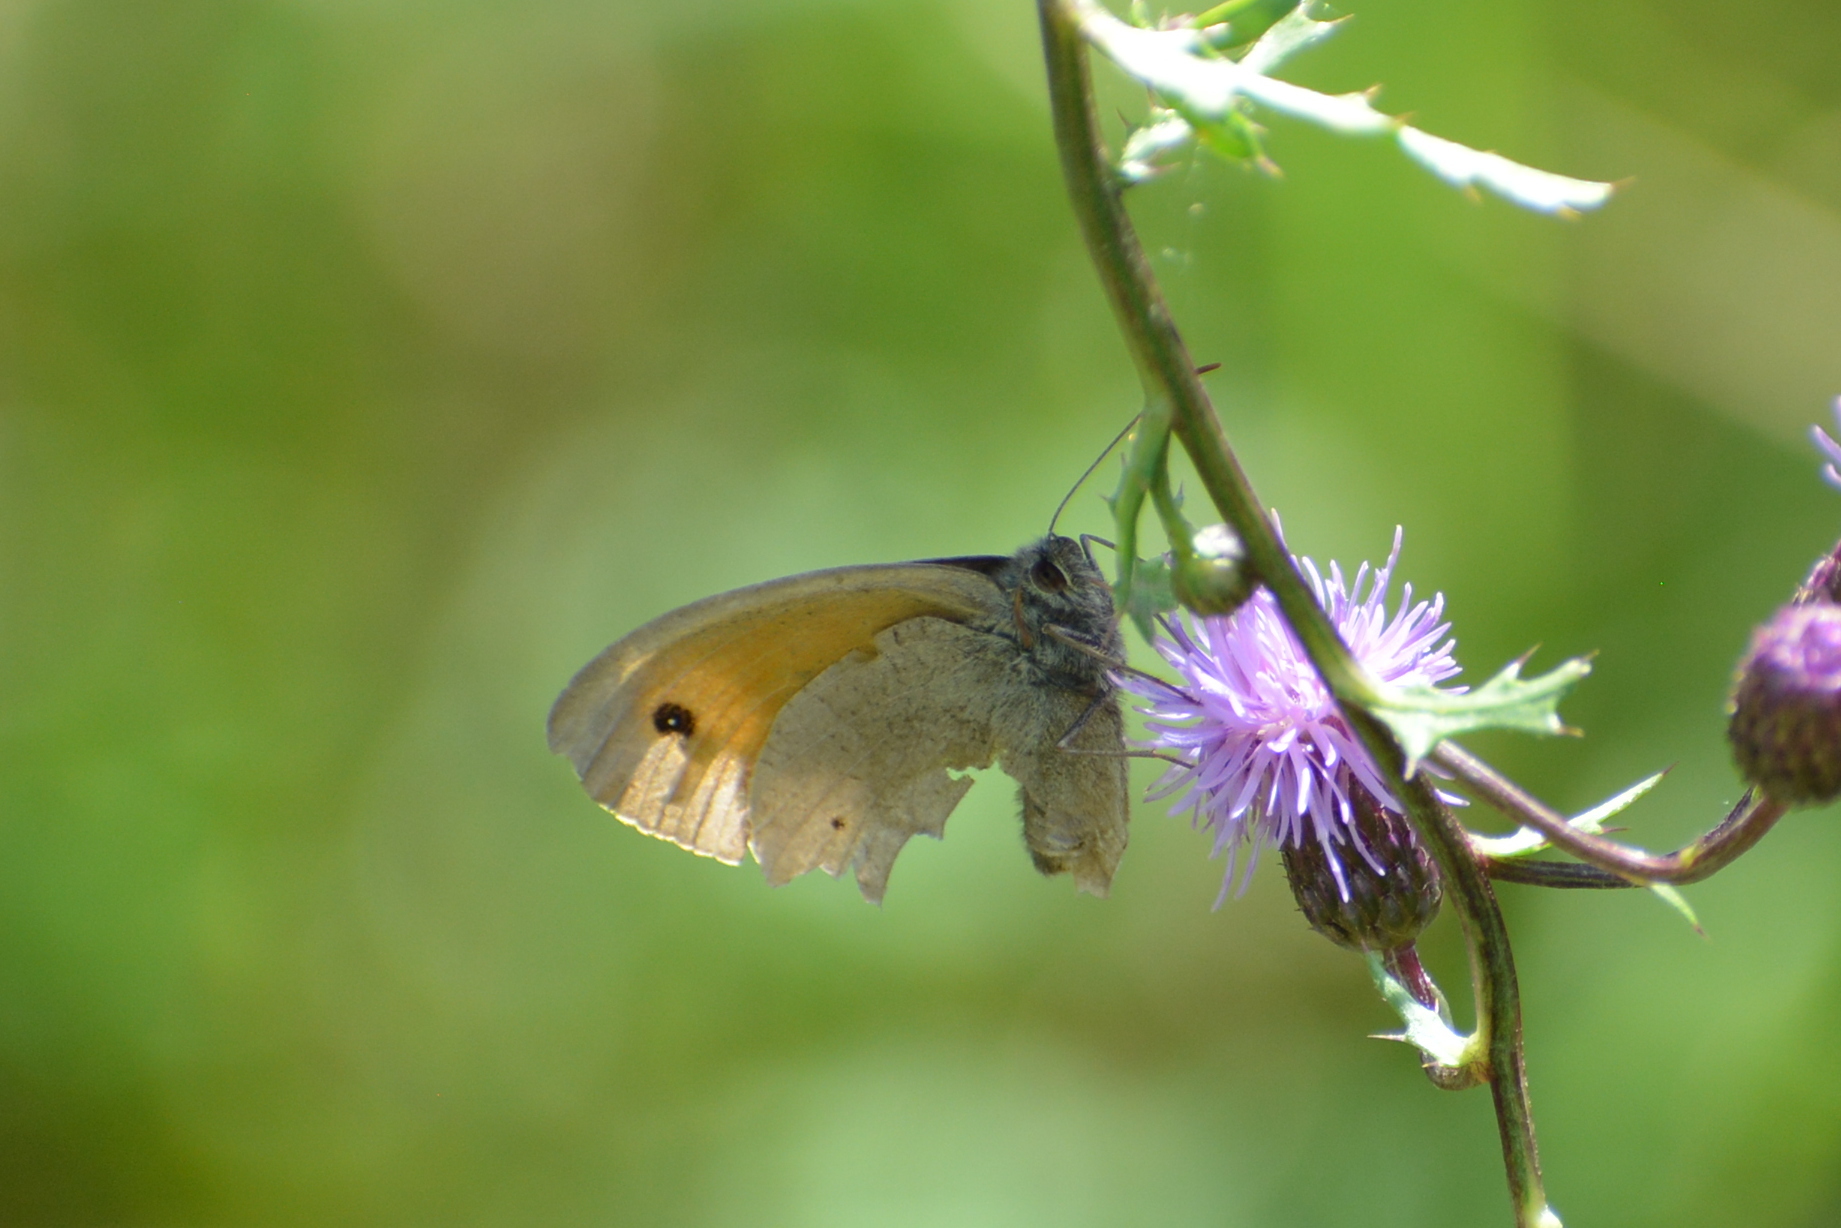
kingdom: Animalia
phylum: Arthropoda
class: Insecta
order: Lepidoptera
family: Nymphalidae
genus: Maniola
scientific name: Maniola jurtina
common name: Meadow brown
